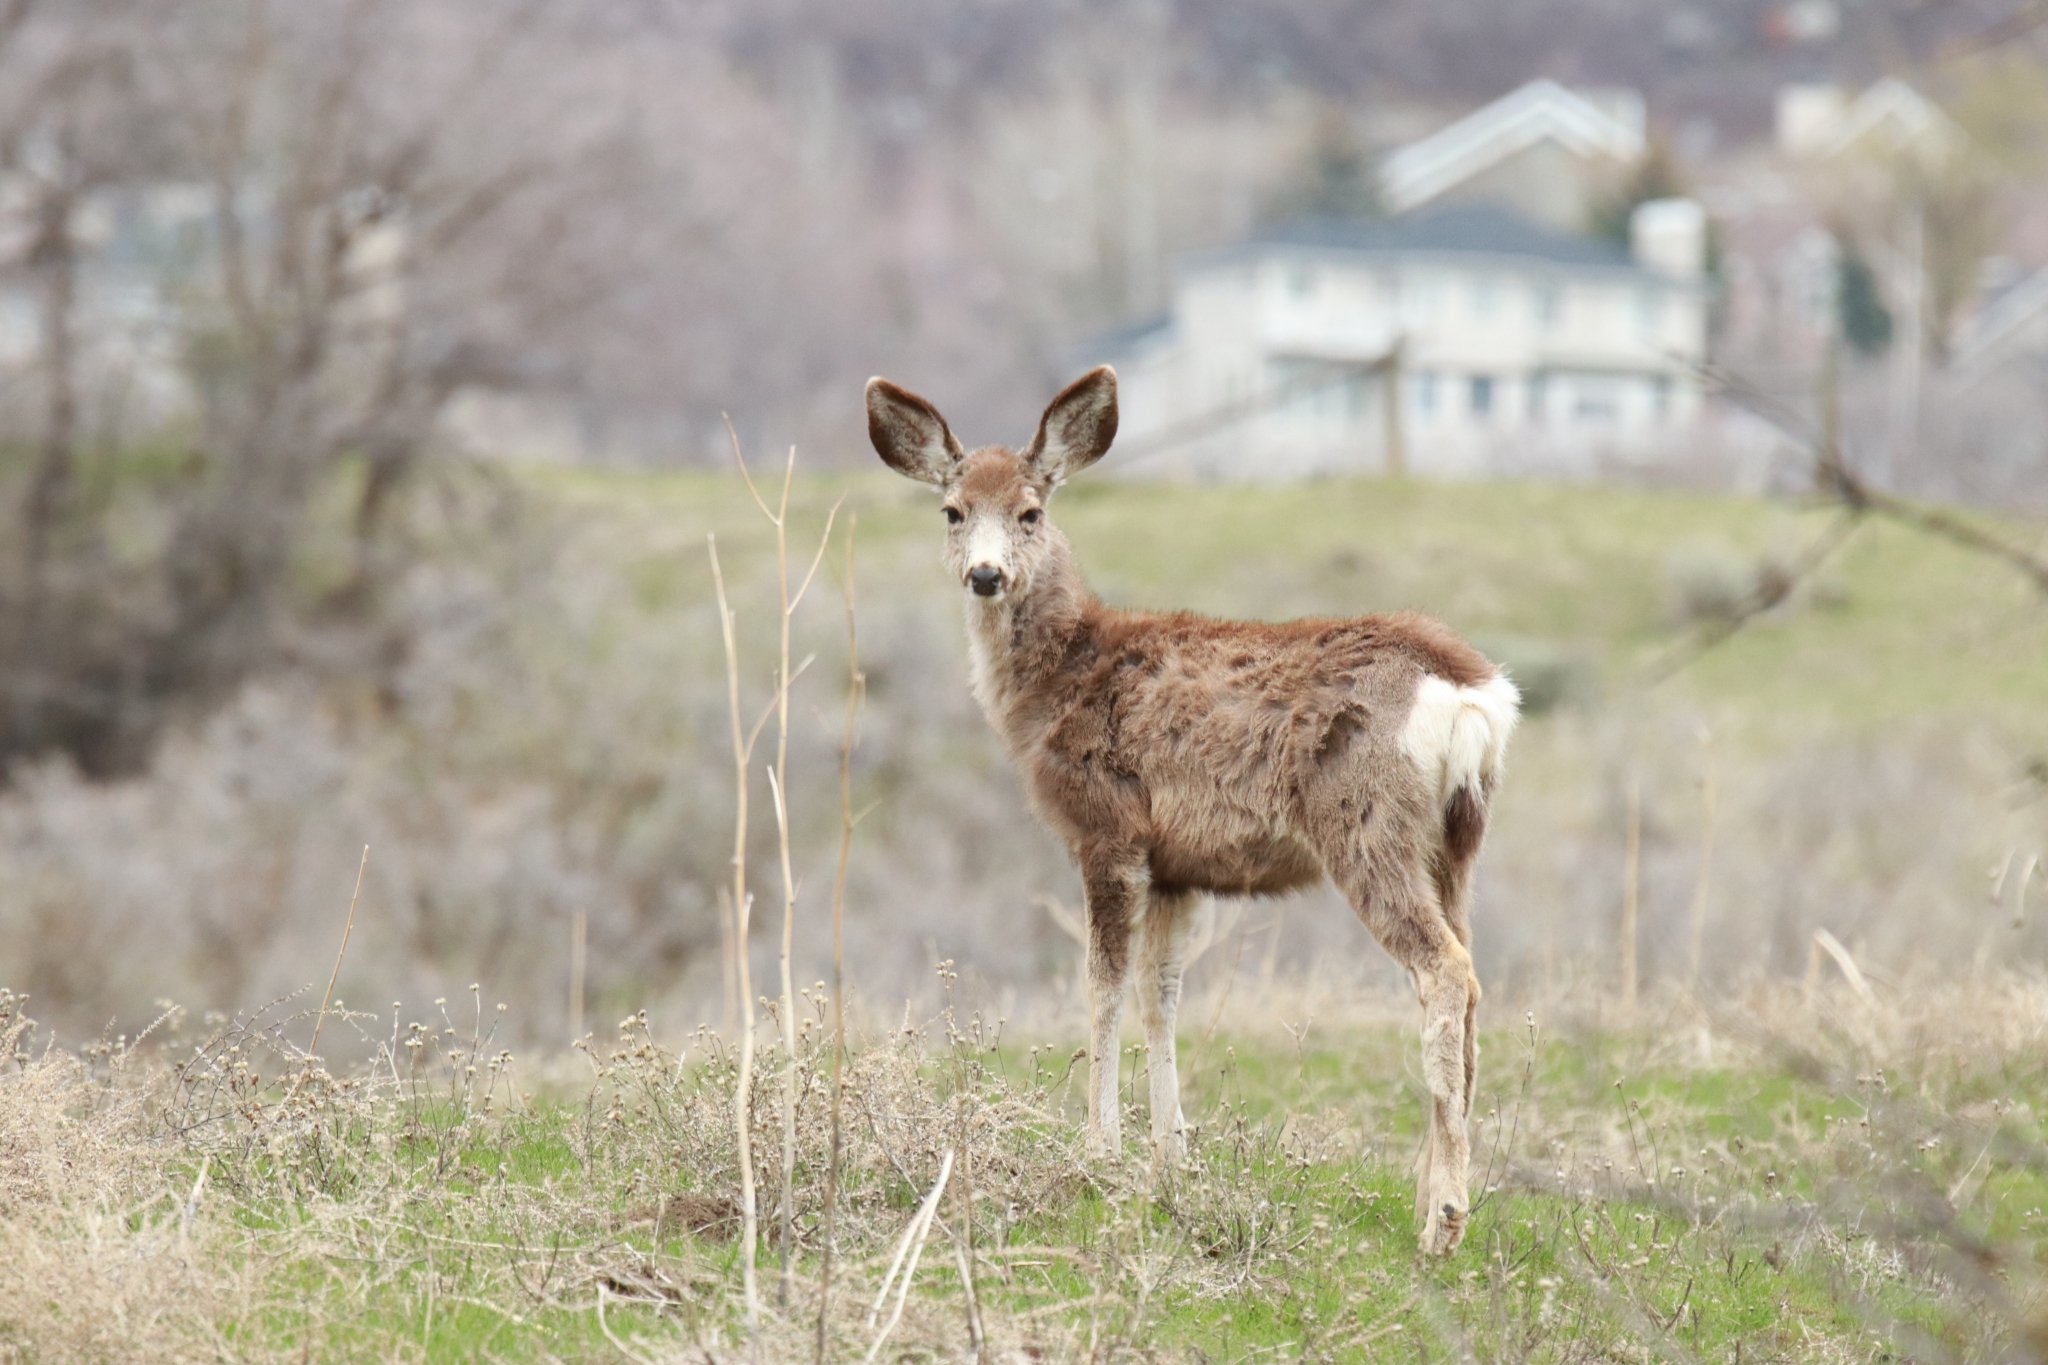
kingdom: Animalia
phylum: Chordata
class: Mammalia
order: Artiodactyla
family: Cervidae
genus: Odocoileus
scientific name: Odocoileus hemionus
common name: Mule deer
